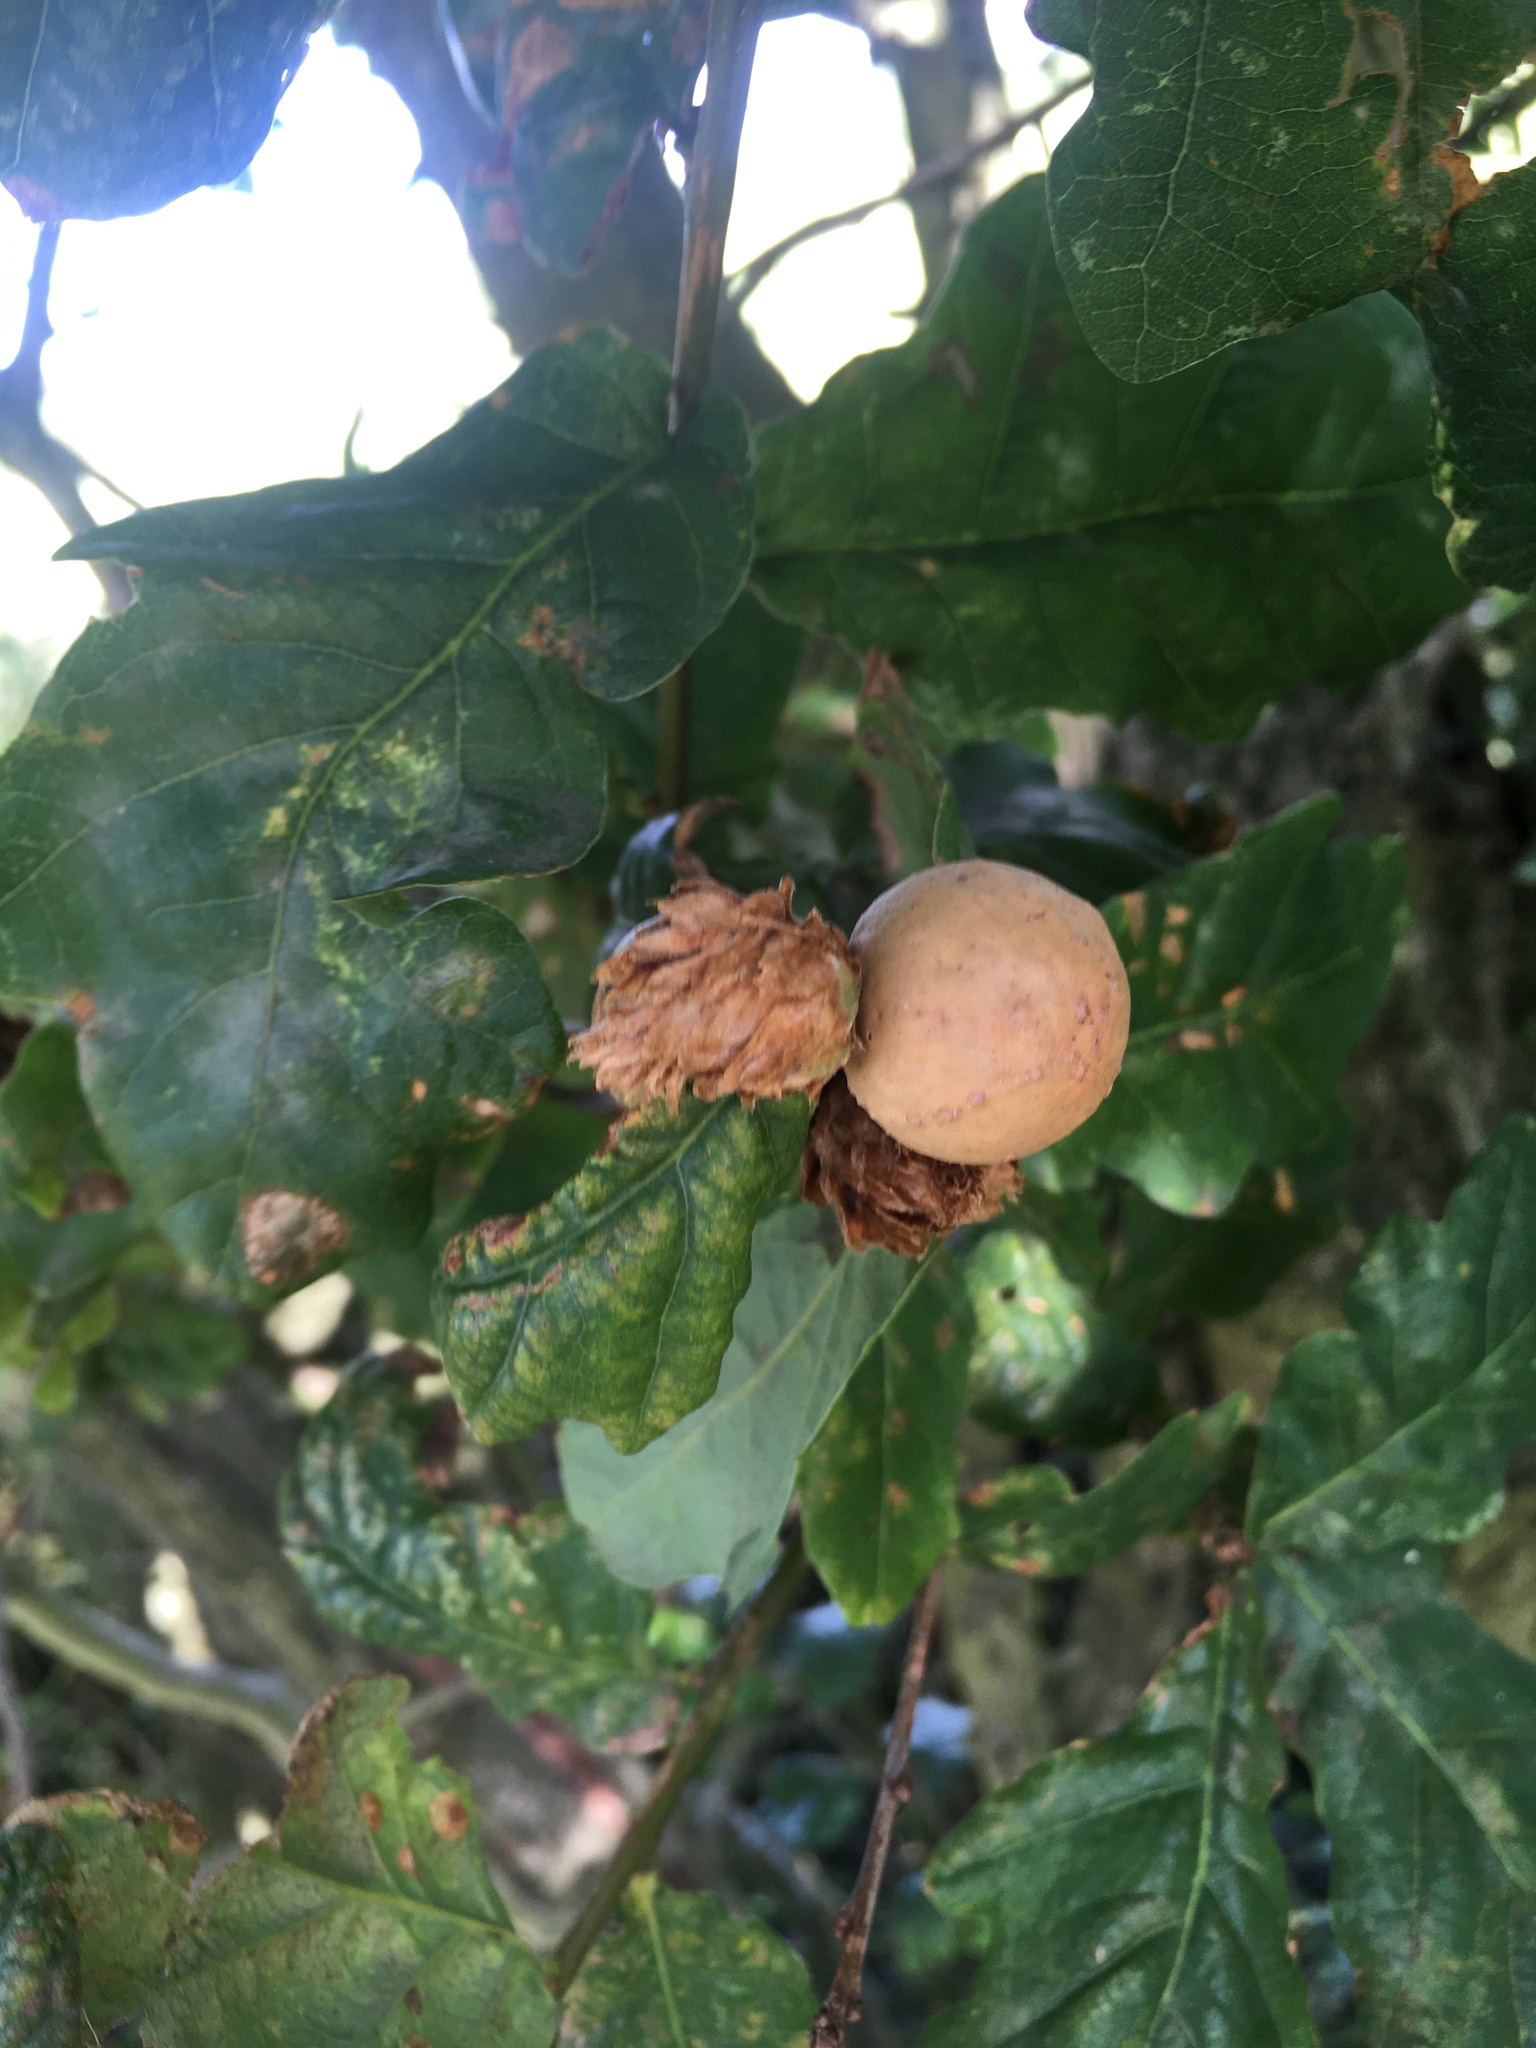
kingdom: Animalia
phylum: Arthropoda
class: Insecta
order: Hymenoptera
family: Cynipidae
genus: Andricus
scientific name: Andricus kollari
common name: Marble gall
